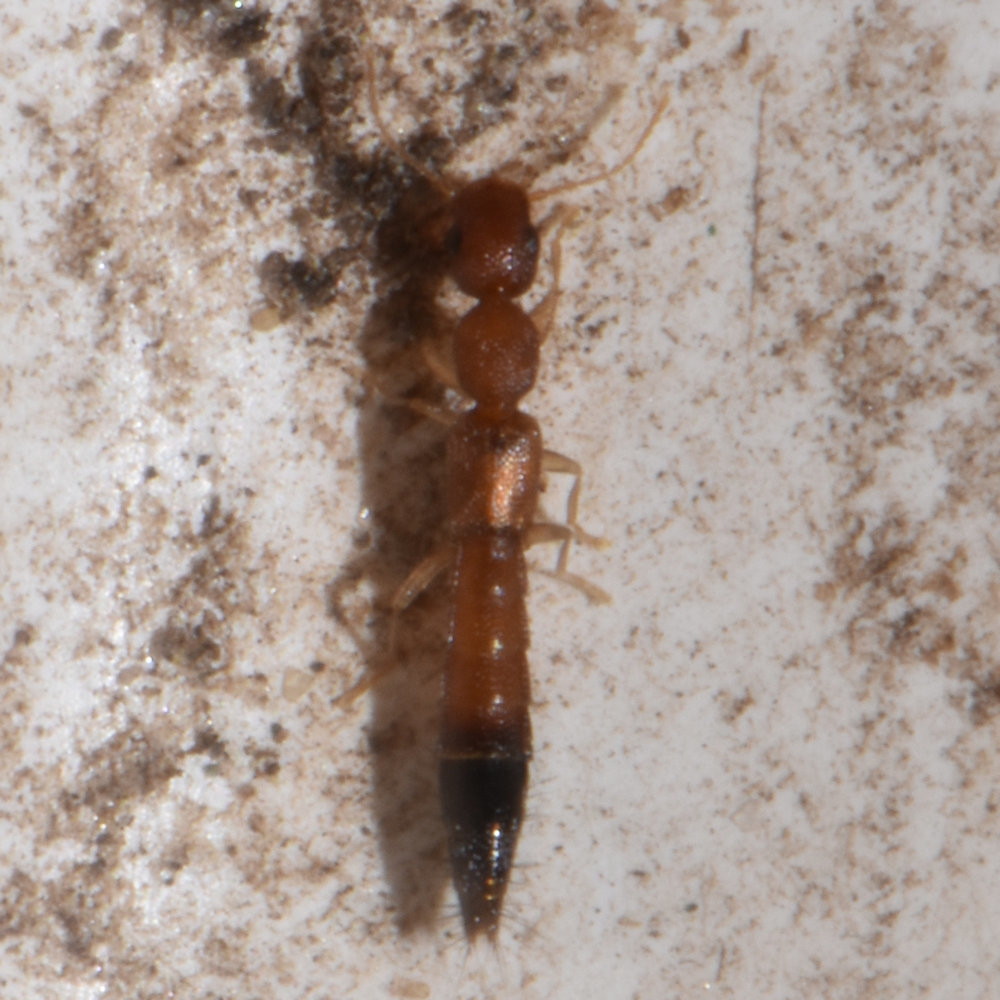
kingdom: Animalia
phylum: Arthropoda
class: Insecta
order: Coleoptera
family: Staphylinidae
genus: Astenus
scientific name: Astenus discopunctatus
